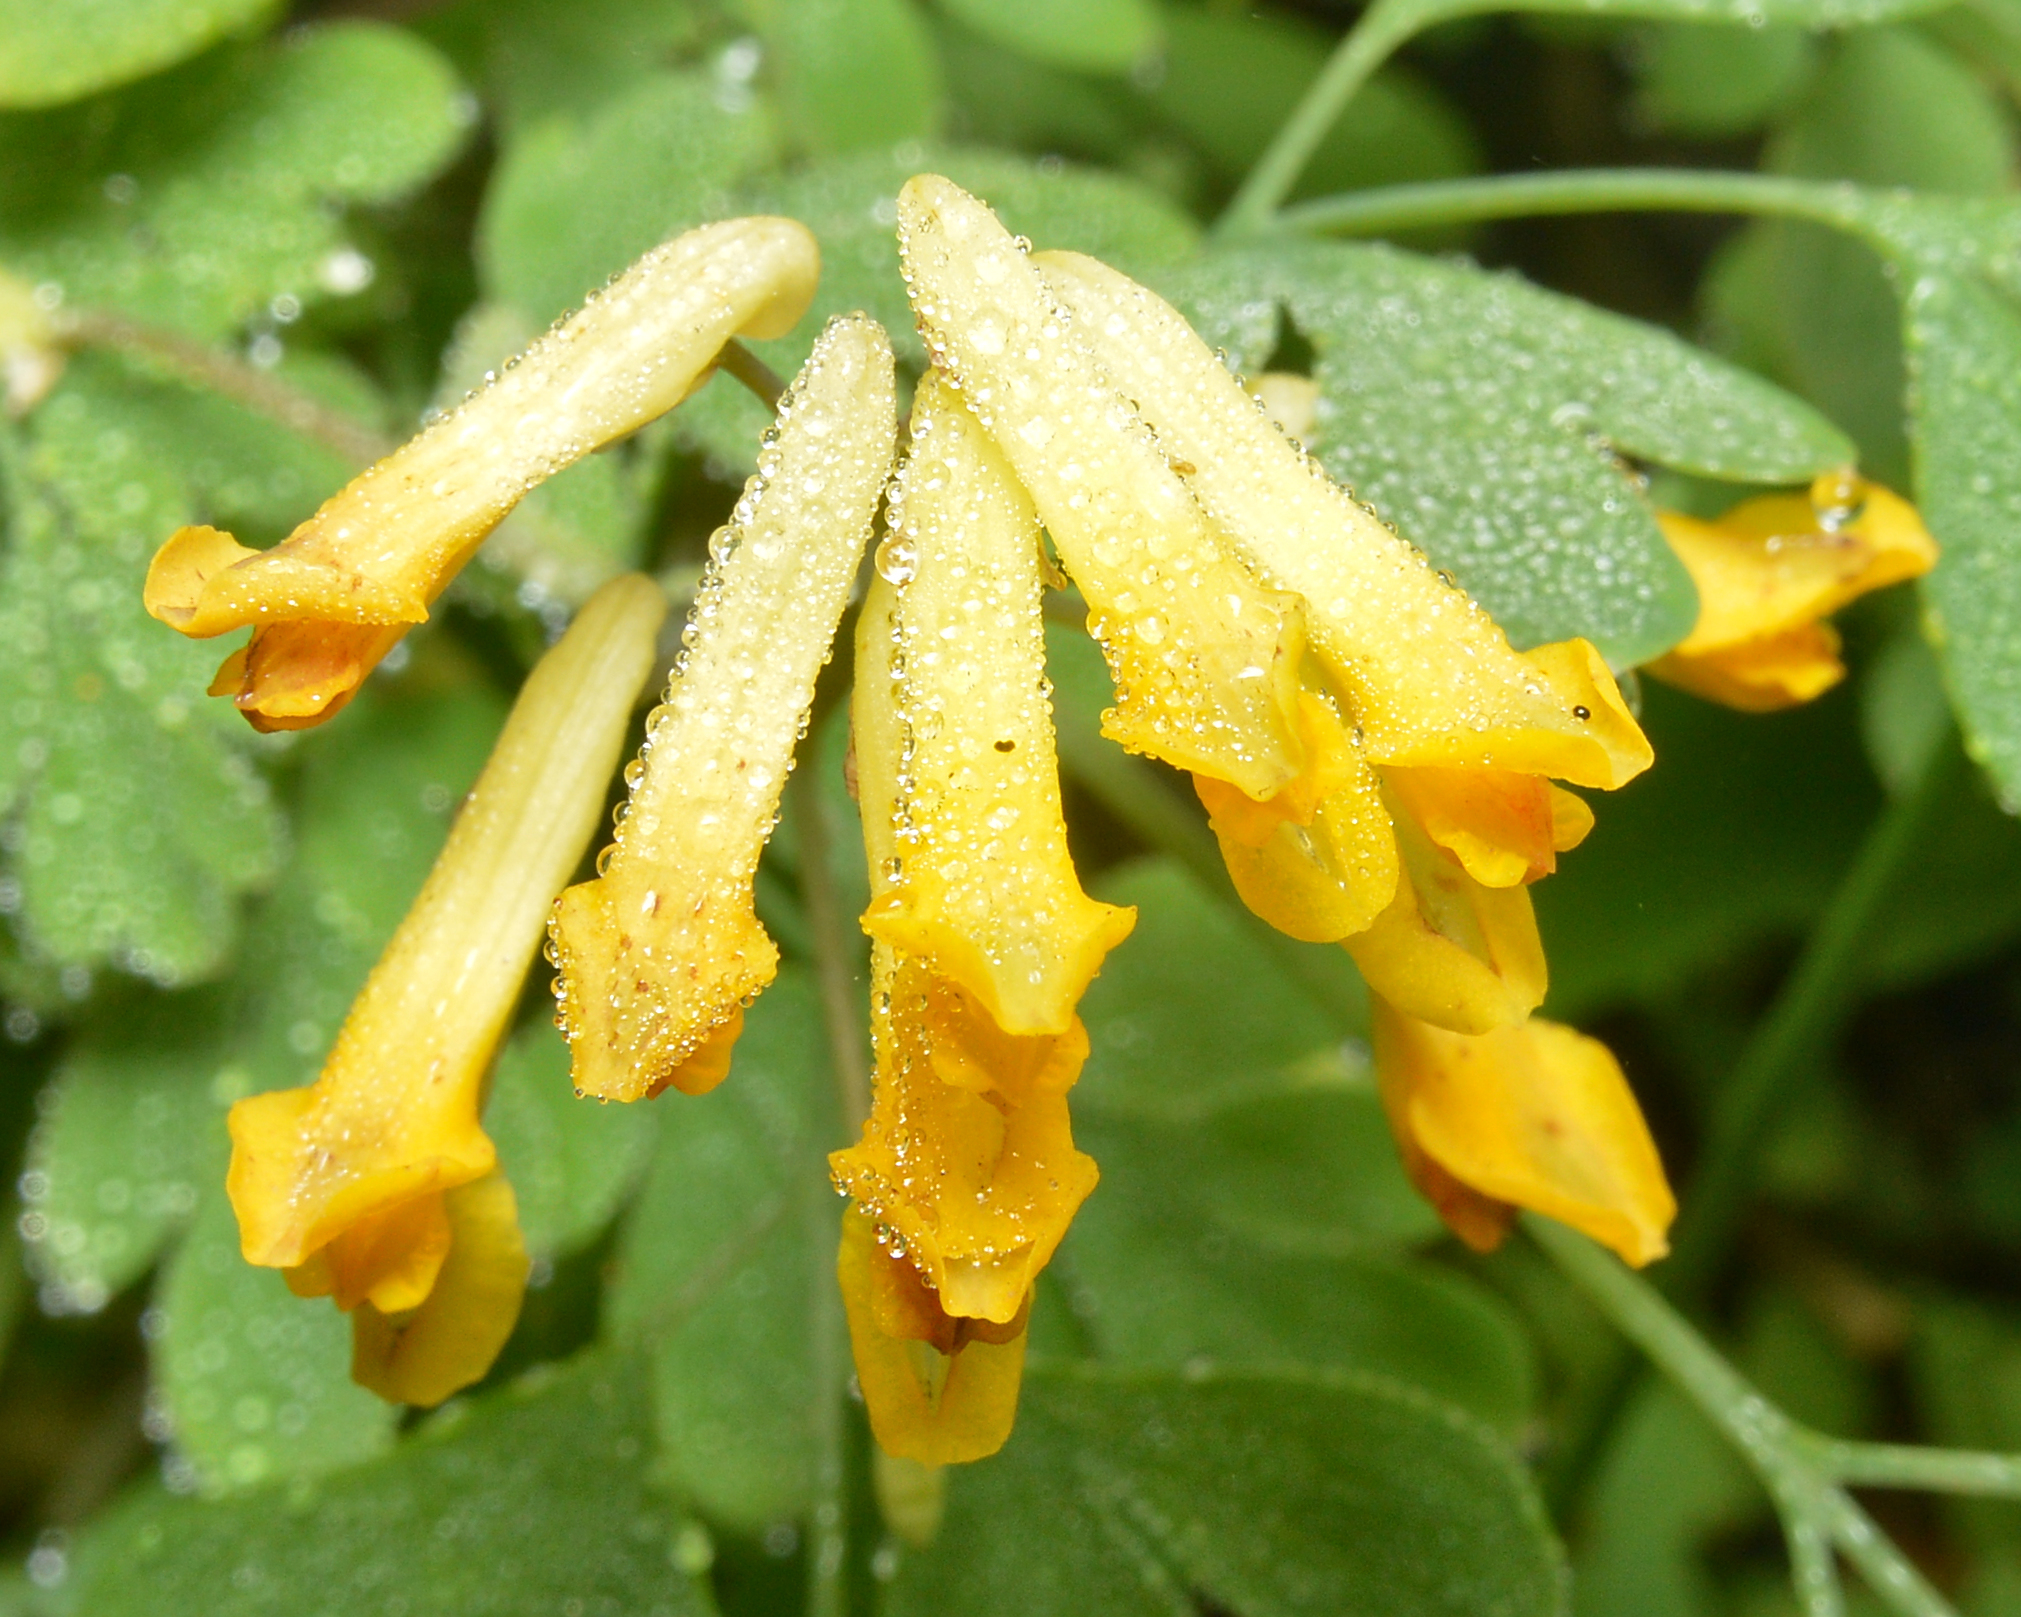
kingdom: Plantae
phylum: Tracheophyta
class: Magnoliopsida
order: Ranunculales
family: Papaveraceae
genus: Pseudofumaria
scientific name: Pseudofumaria lutea
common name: Yellow corydalis
